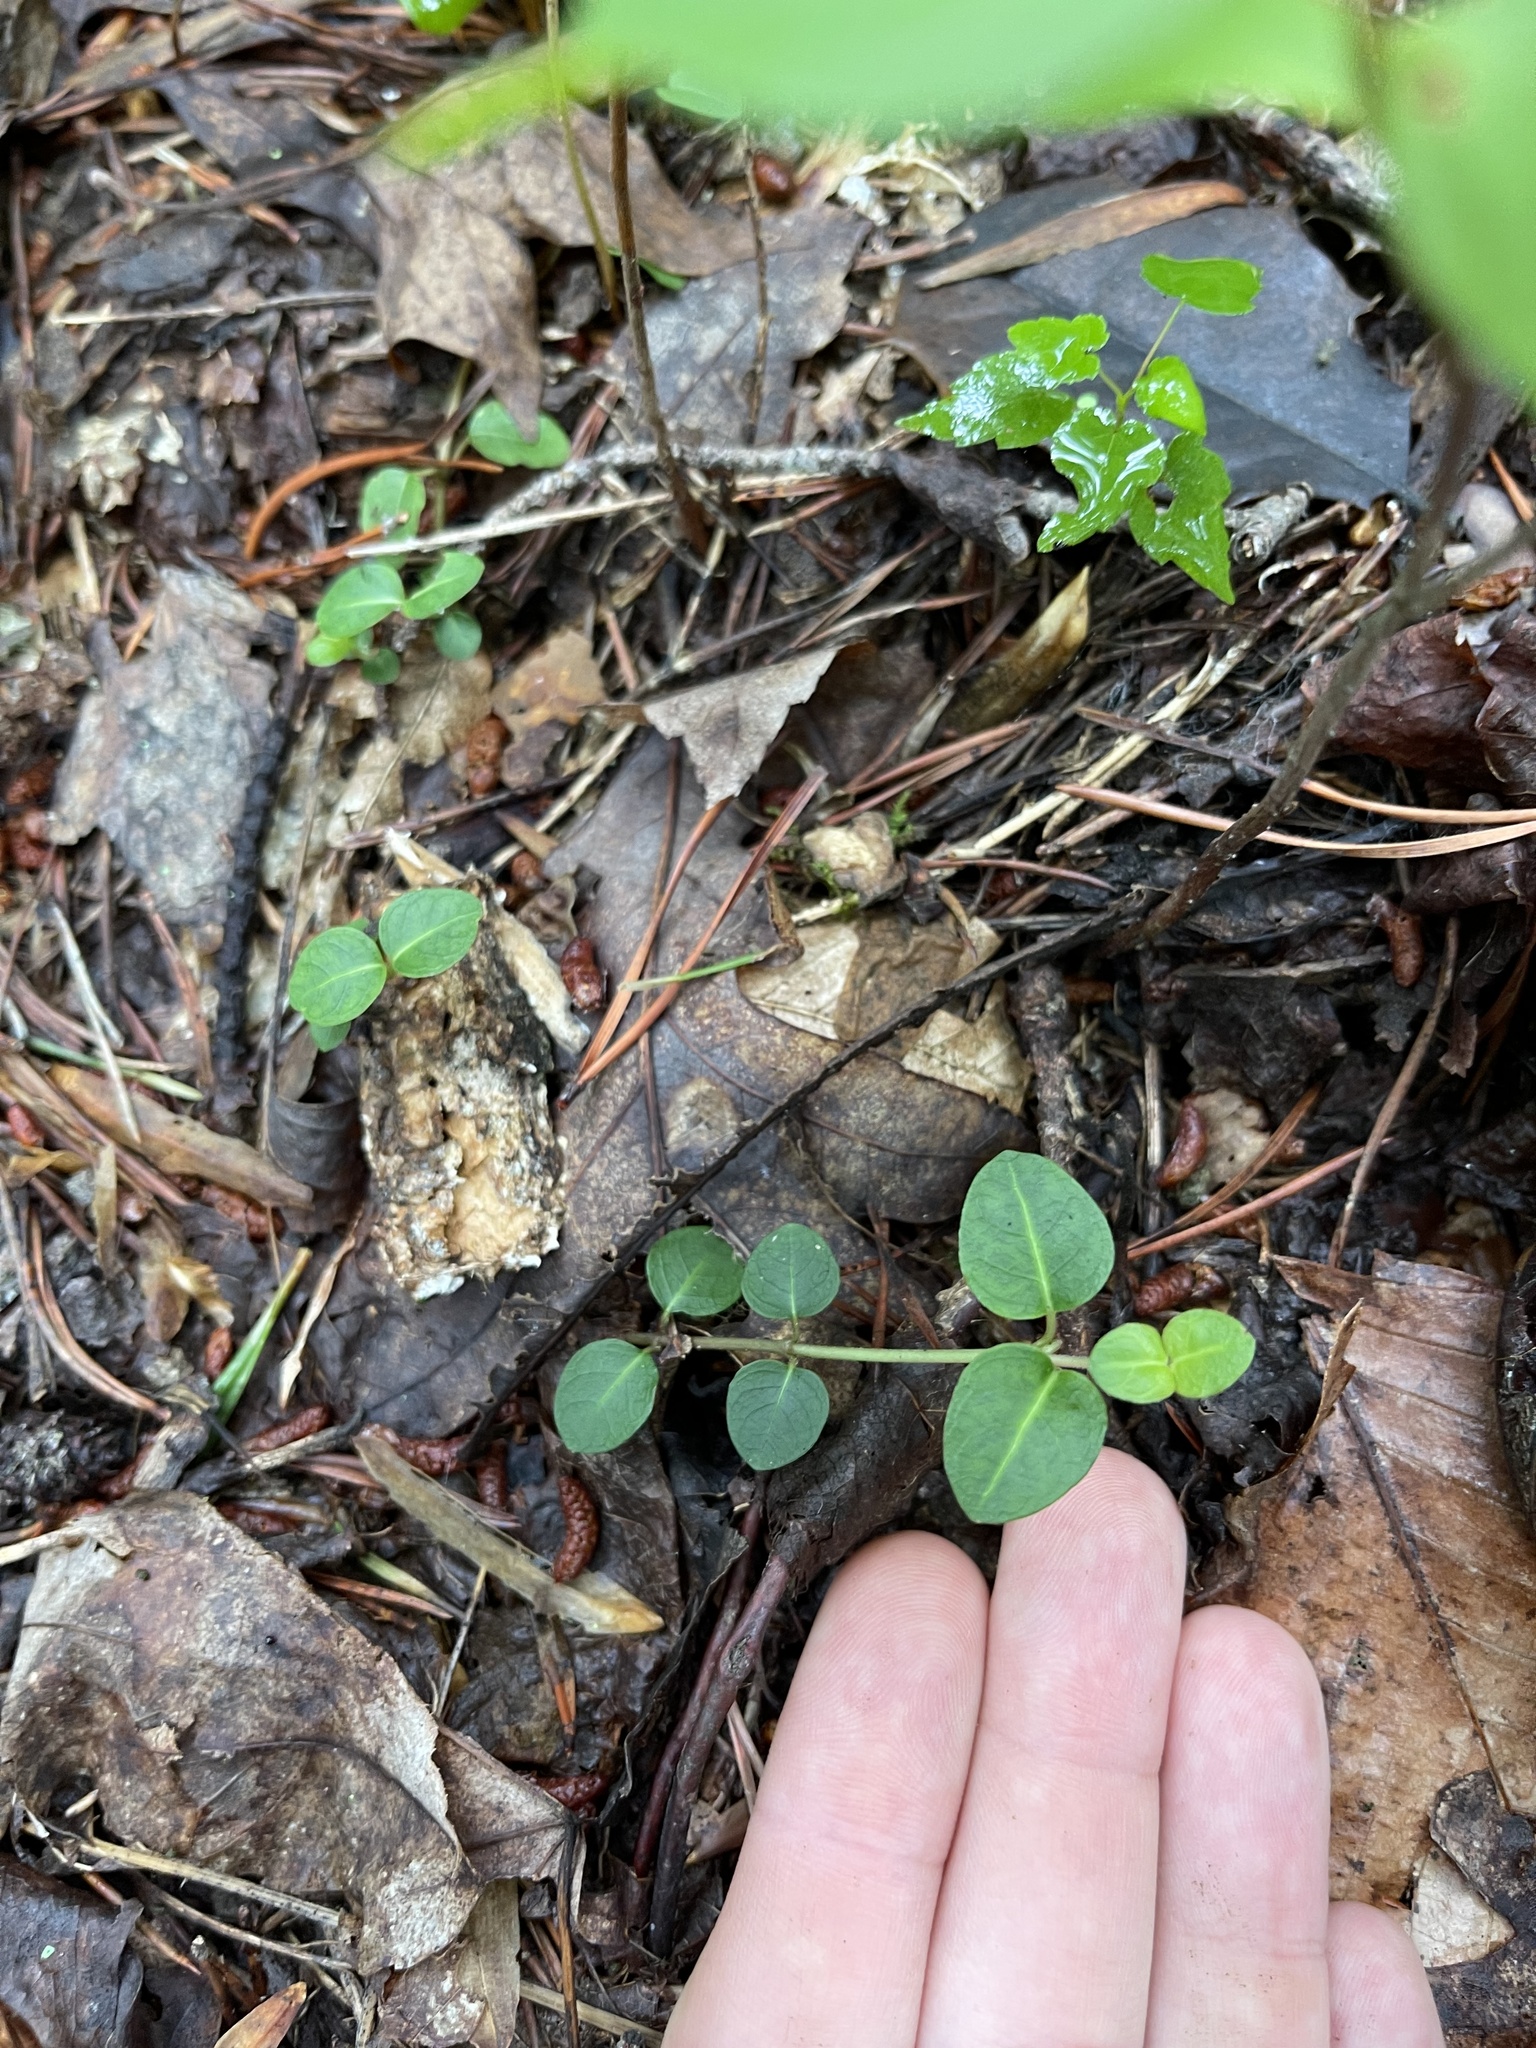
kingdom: Plantae
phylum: Tracheophyta
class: Magnoliopsida
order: Gentianales
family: Rubiaceae
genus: Mitchella
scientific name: Mitchella repens
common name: Partridge-berry
